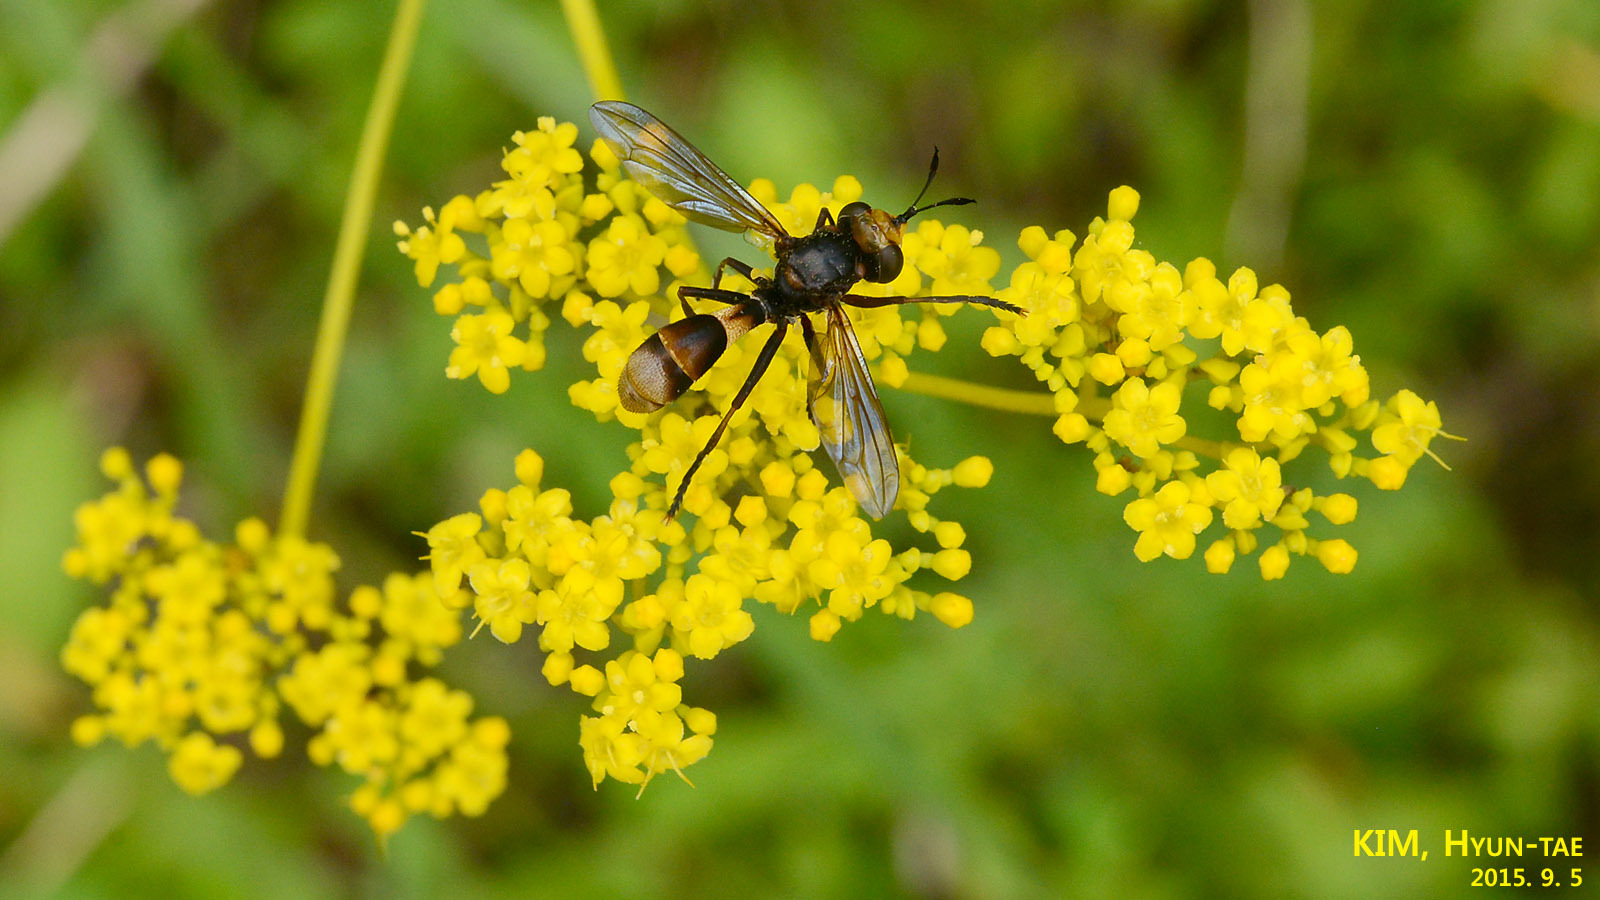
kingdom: Animalia
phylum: Arthropoda
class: Insecta
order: Diptera
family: Conopidae
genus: Siniconops
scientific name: Siniconops grandens
